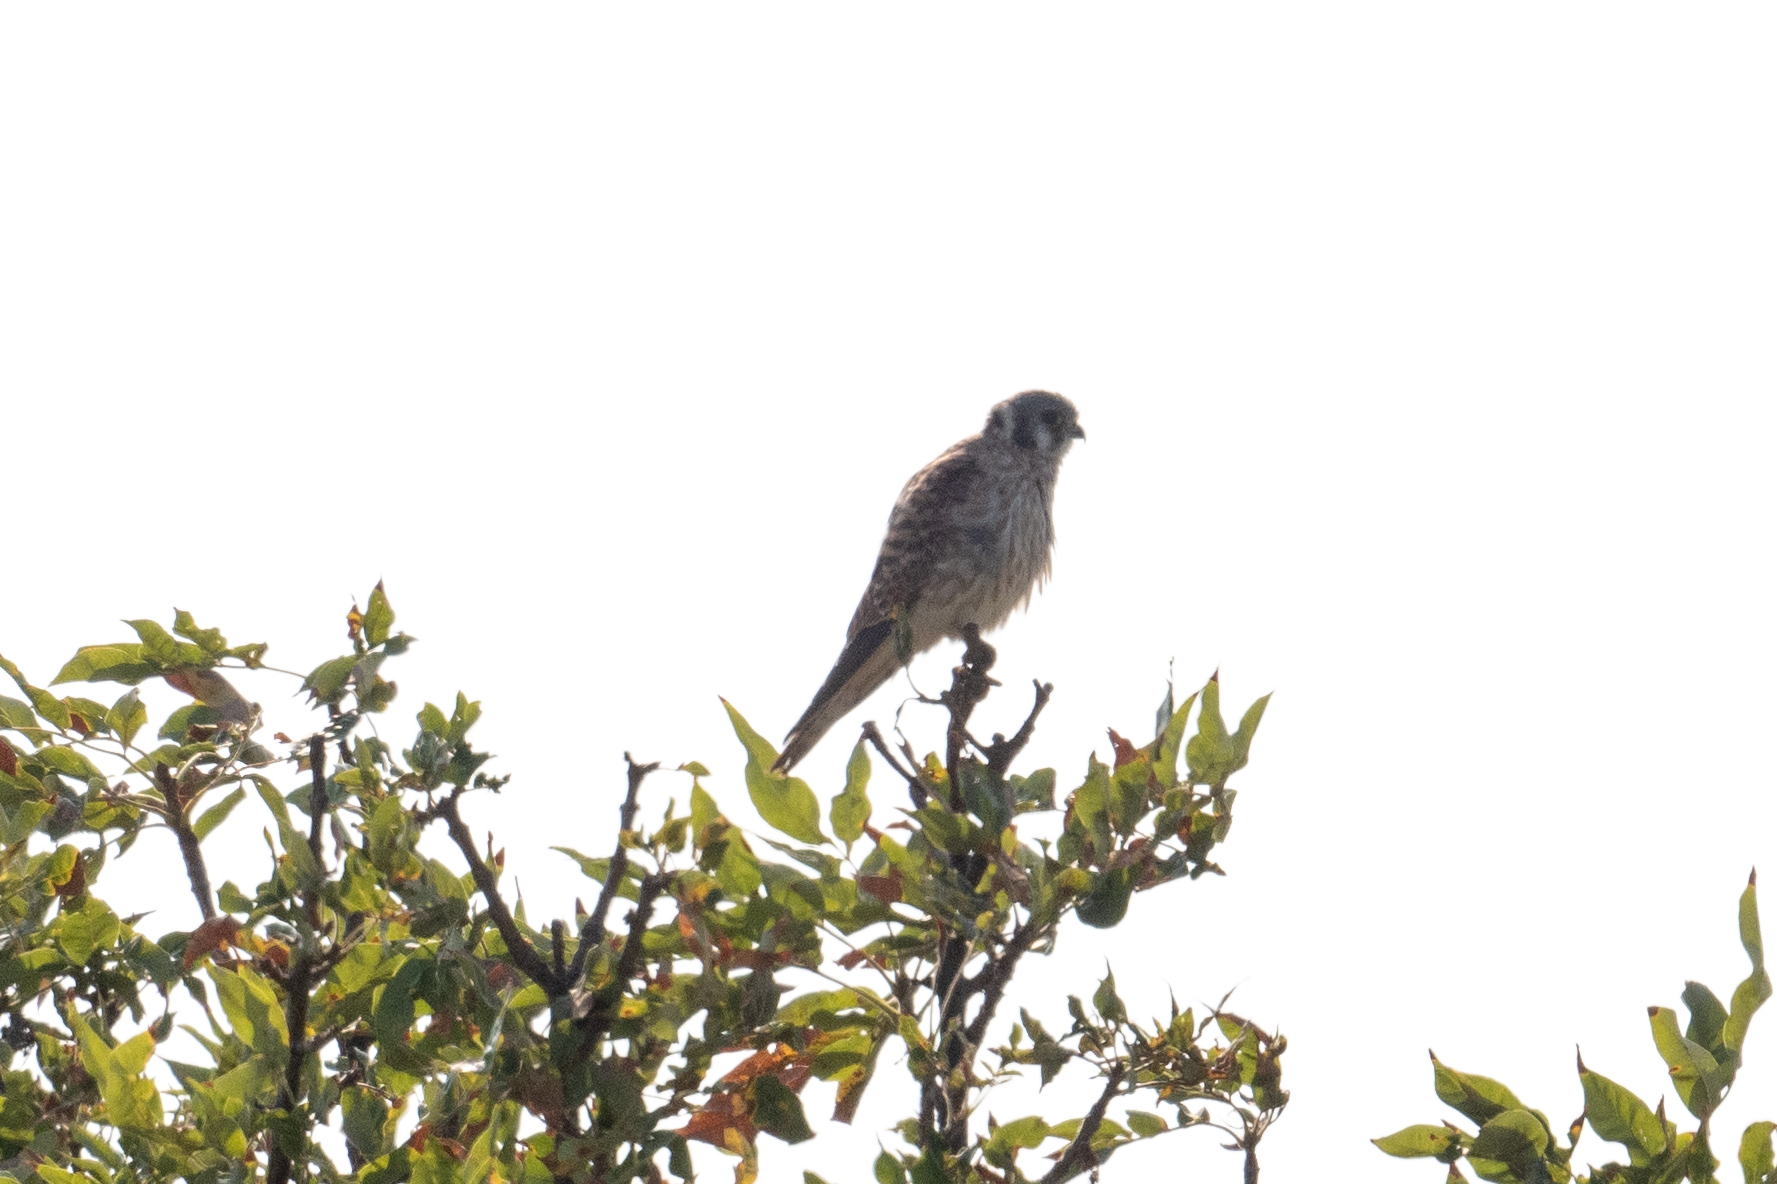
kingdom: Animalia
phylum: Chordata
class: Aves
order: Falconiformes
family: Falconidae
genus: Falco
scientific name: Falco sparverius
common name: American kestrel
